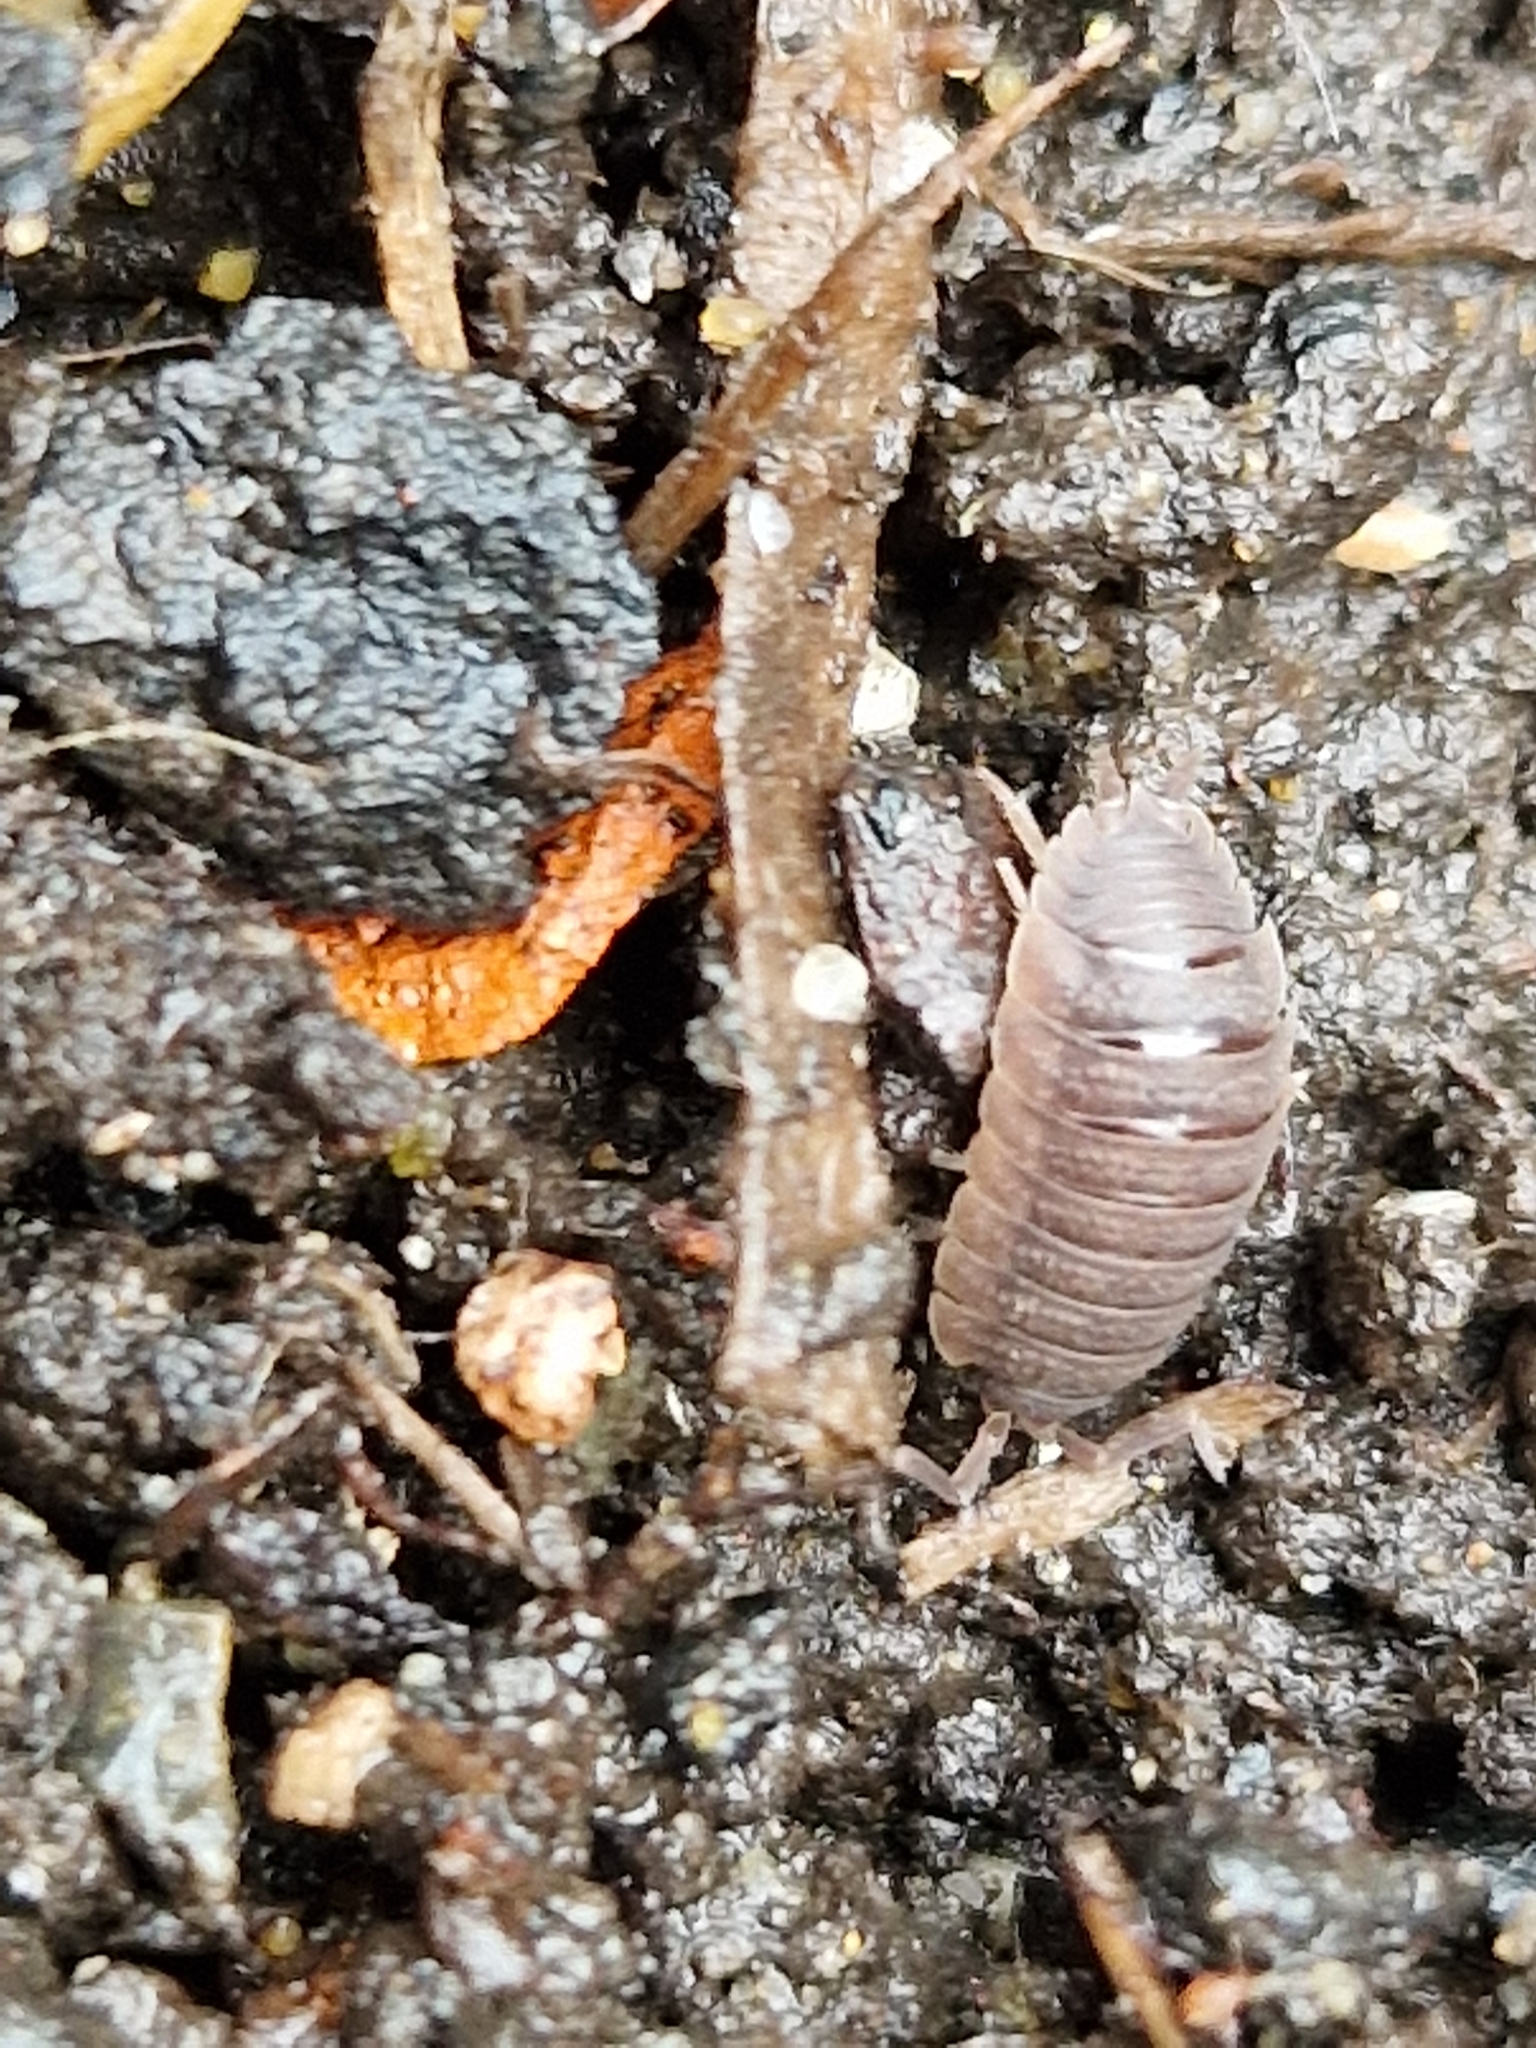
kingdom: Animalia
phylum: Arthropoda
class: Malacostraca
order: Isopoda
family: Porcellionidae
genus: Porcellio
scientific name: Porcellio scaber
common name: Common rough woodlouse
